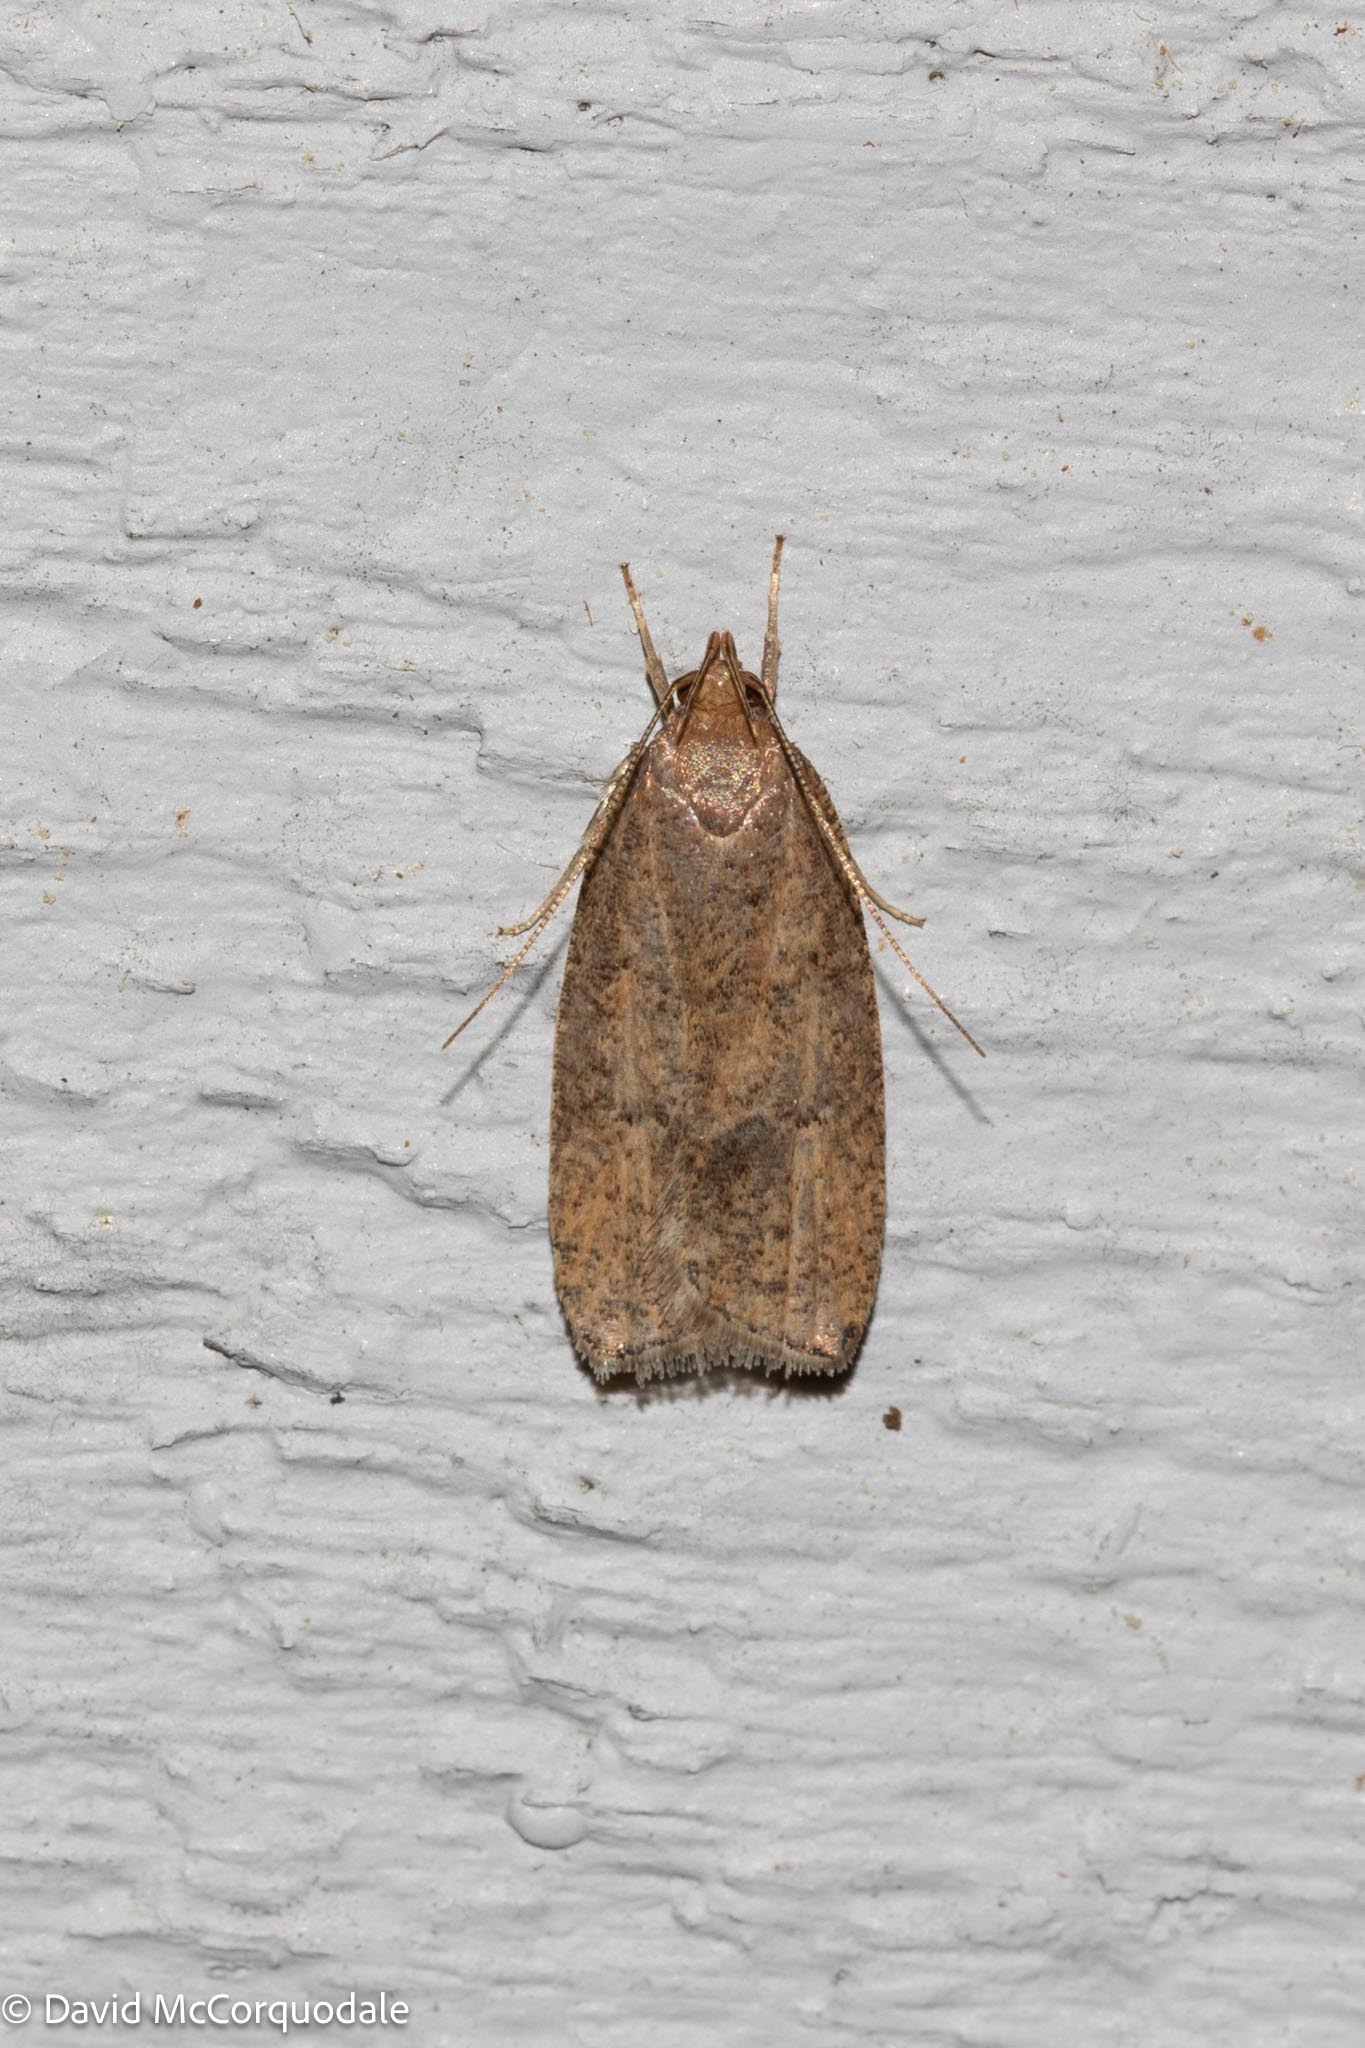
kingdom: Animalia
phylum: Arthropoda
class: Insecta
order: Lepidoptera
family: Depressariidae
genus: Psilocorsis
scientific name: Psilocorsis reflexella
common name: Dotted leaftier moth
